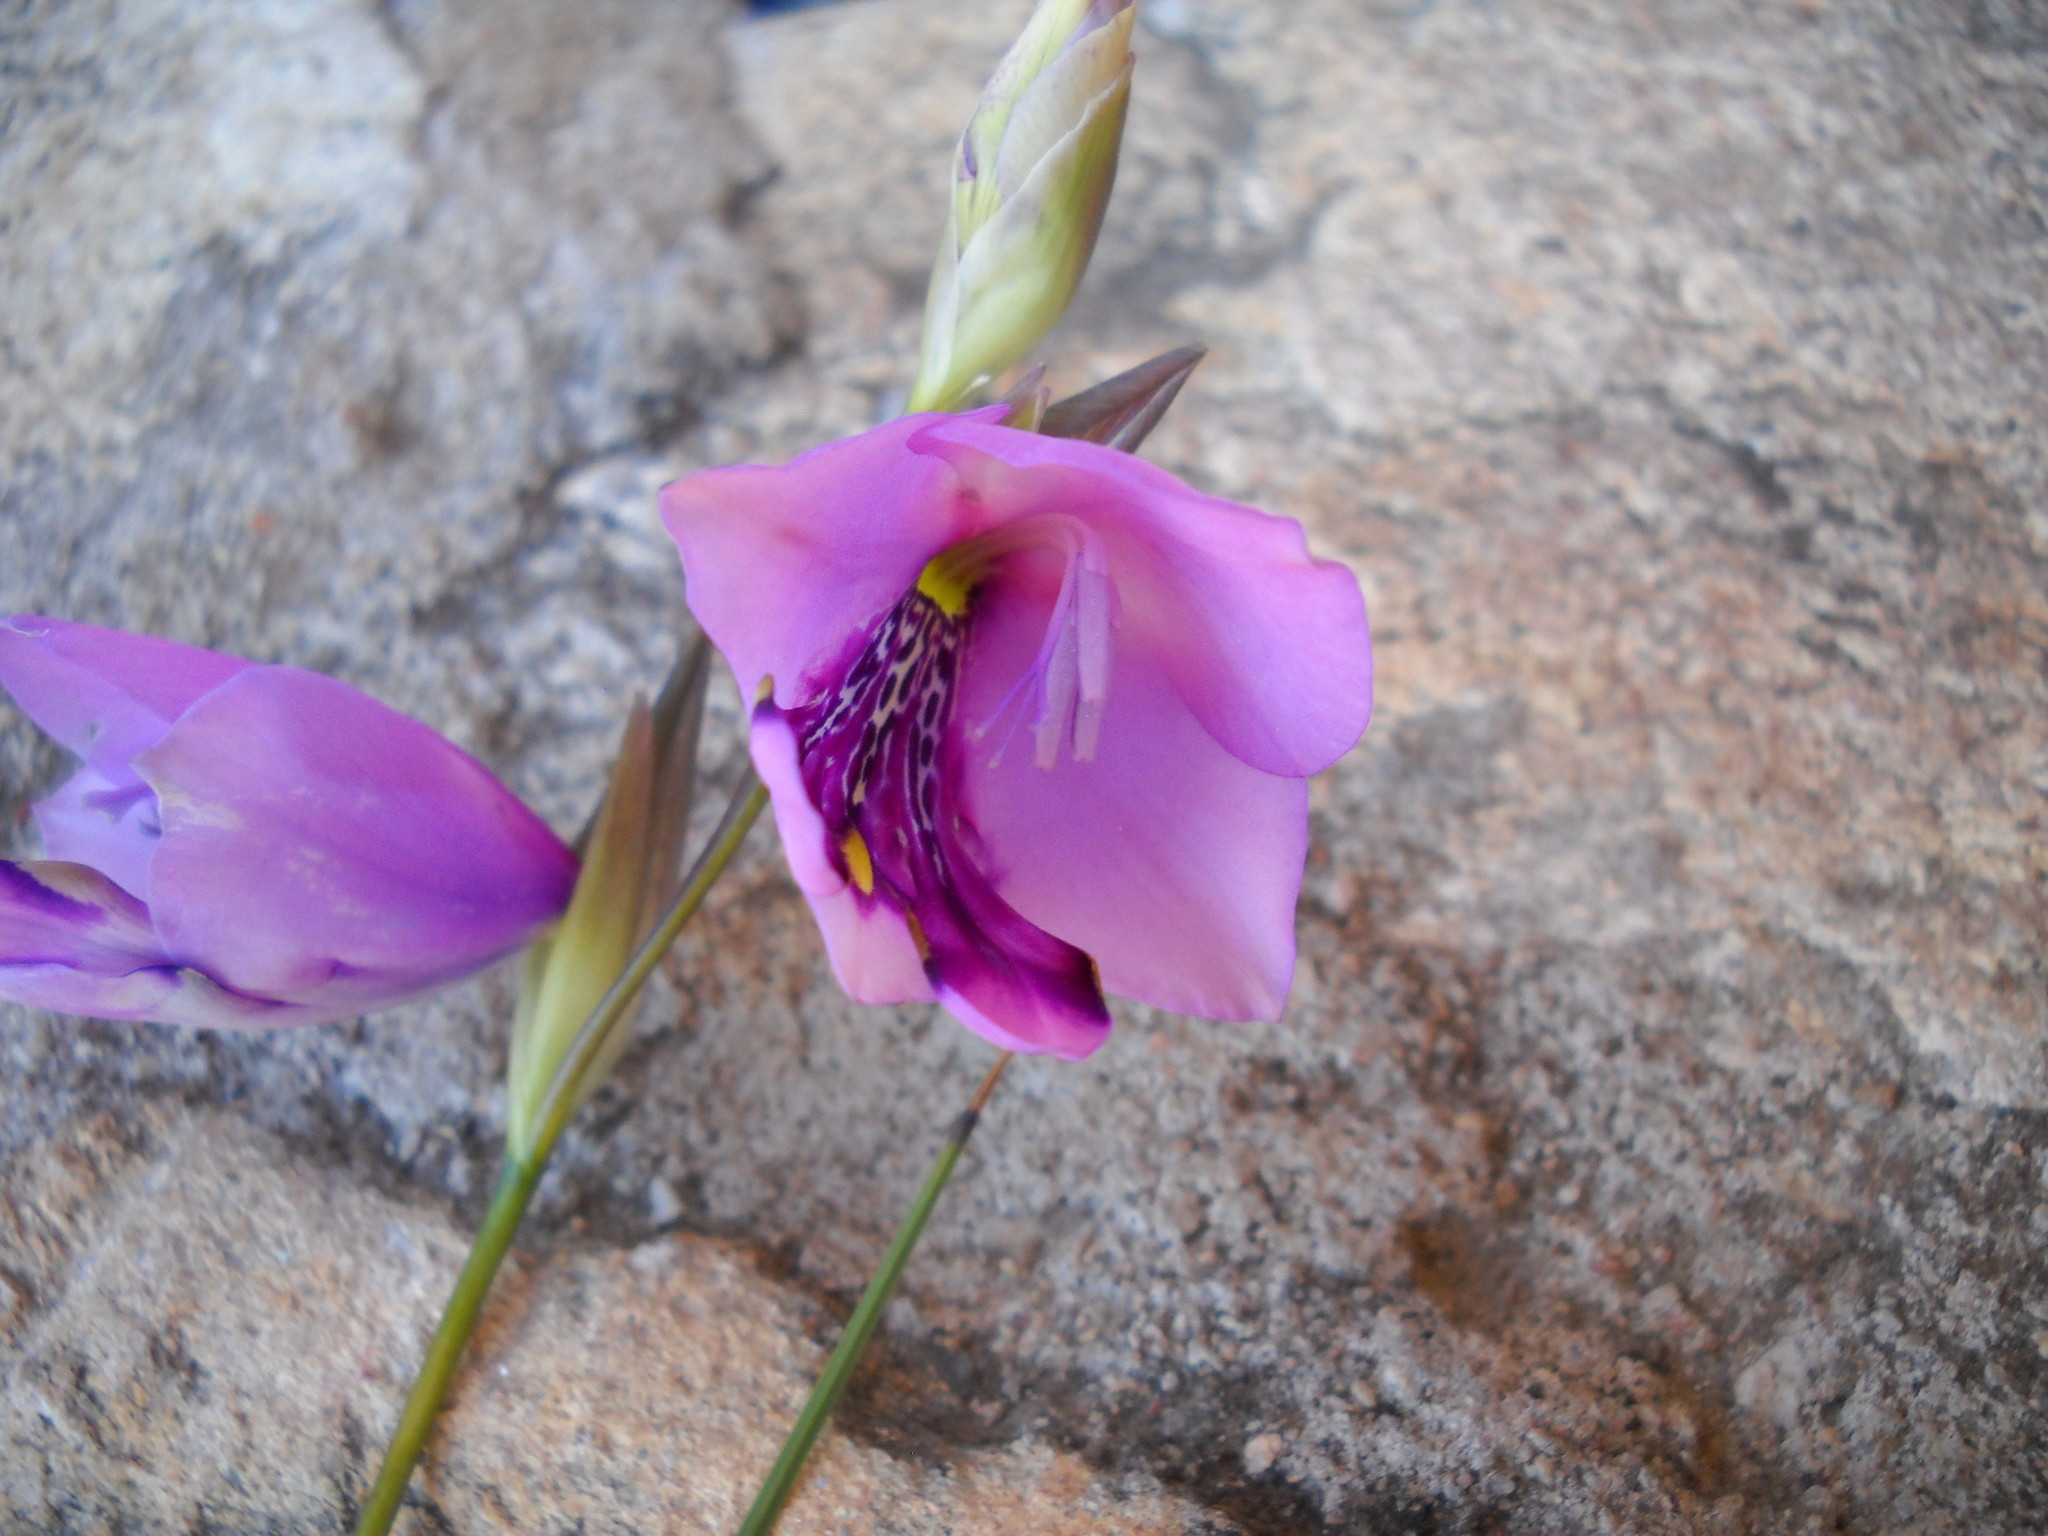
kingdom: Plantae
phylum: Tracheophyta
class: Liliopsida
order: Asparagales
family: Iridaceae
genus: Gladiolus
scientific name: Gladiolus rogersii
